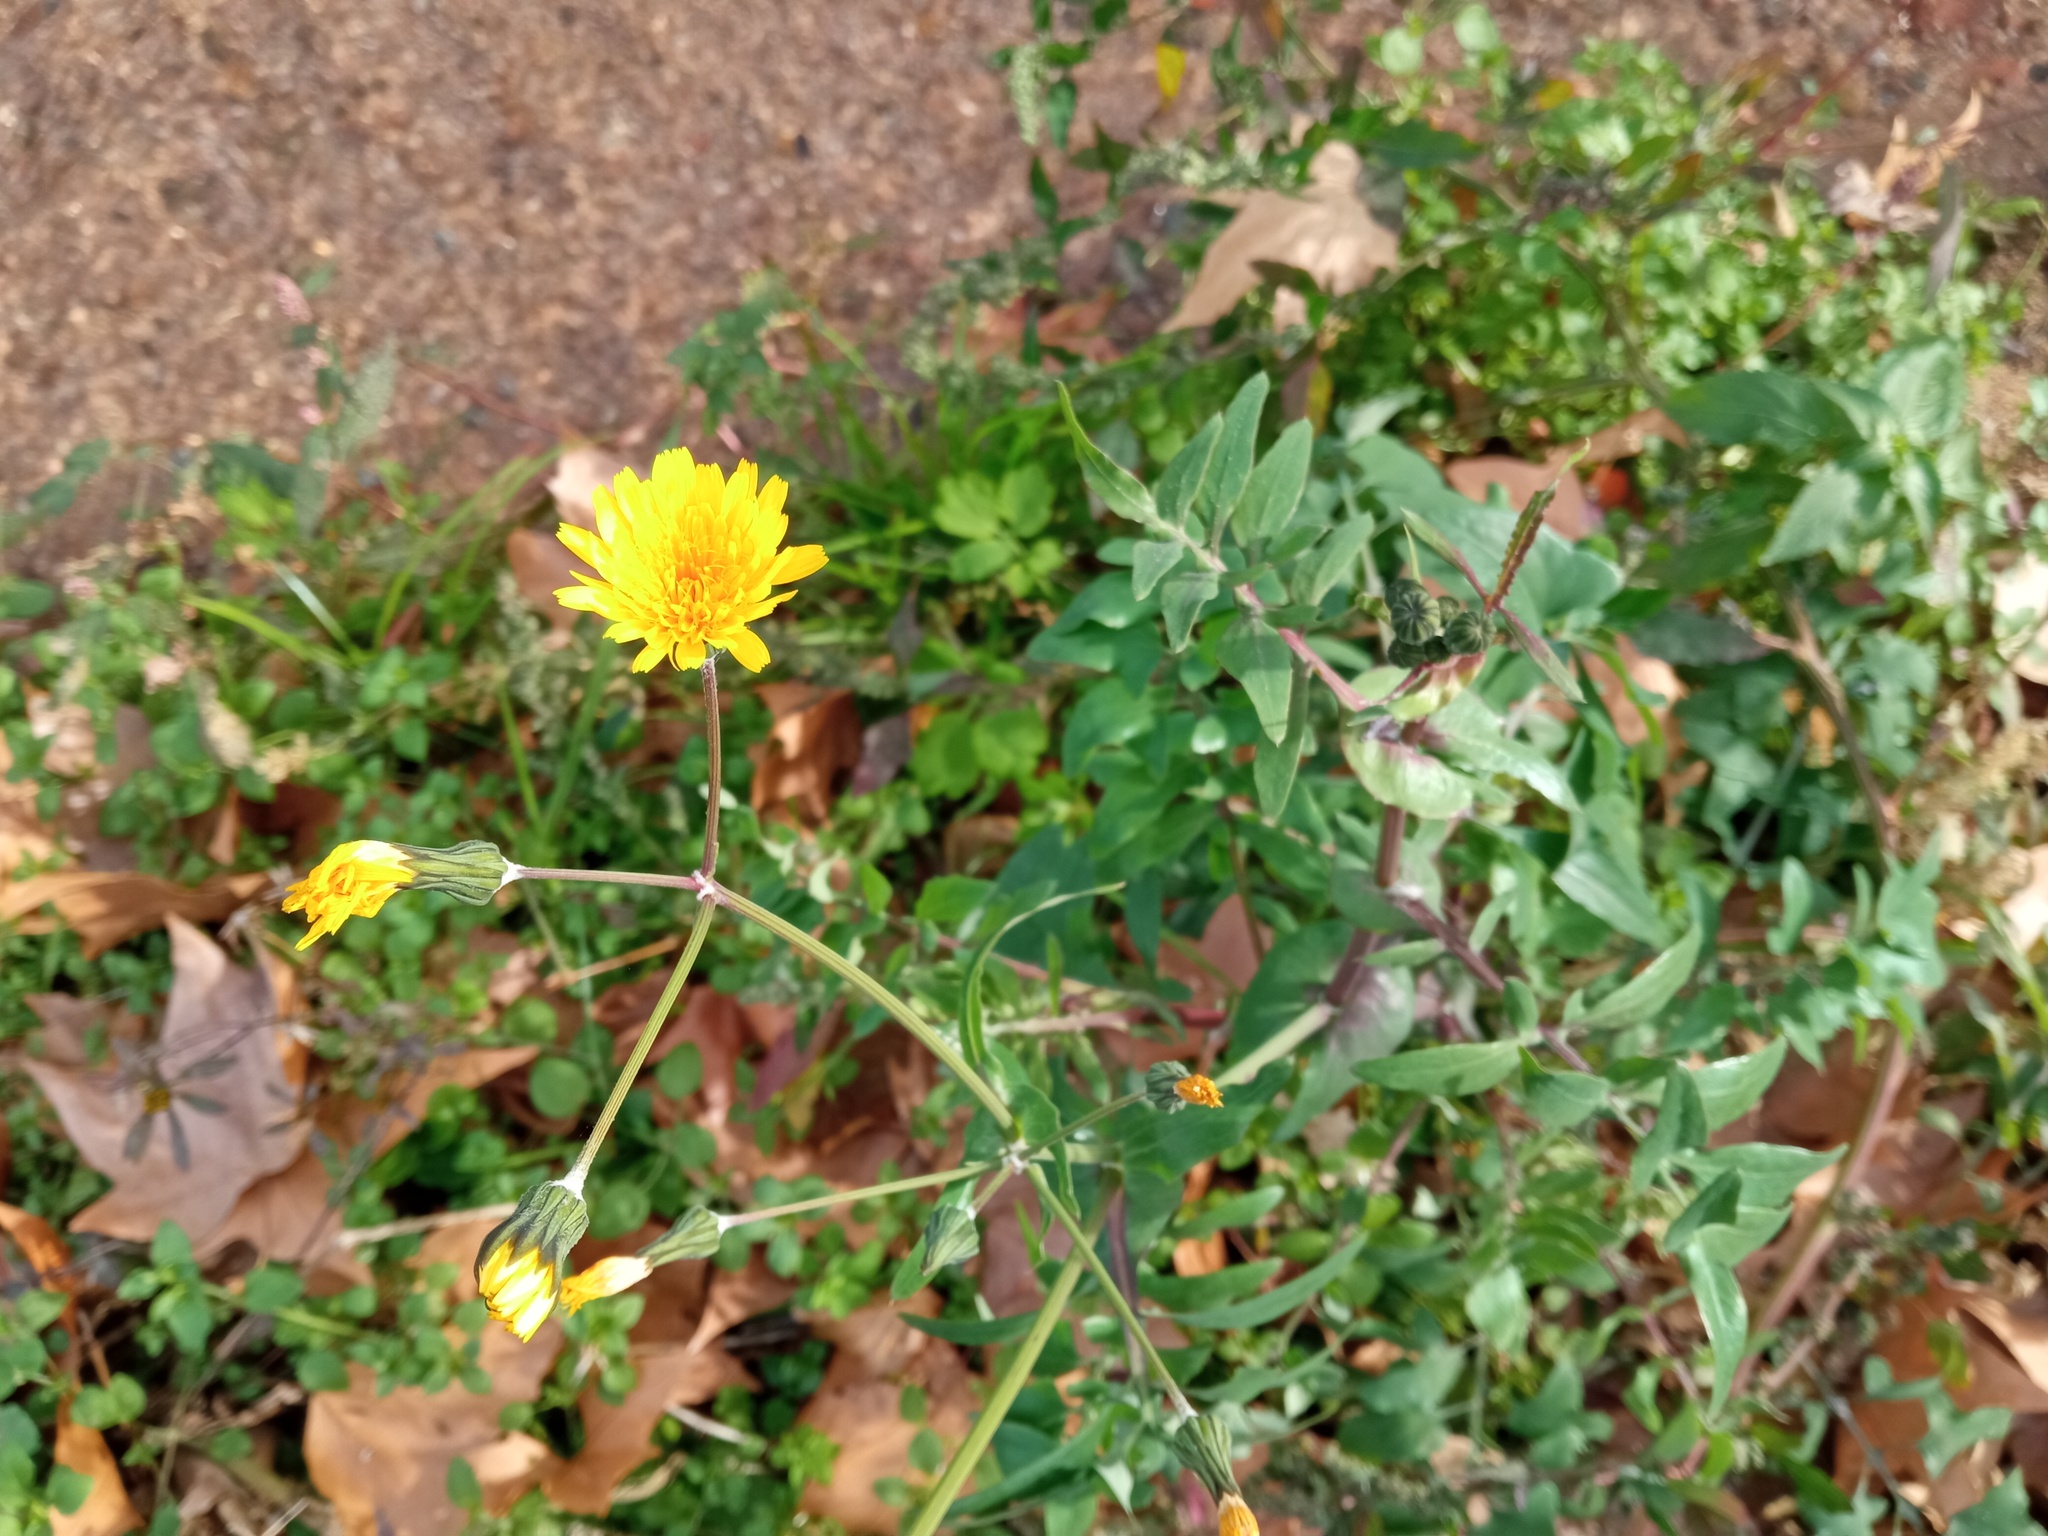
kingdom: Plantae
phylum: Tracheophyta
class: Magnoliopsida
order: Asterales
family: Asteraceae
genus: Sonchus
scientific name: Sonchus tenerrimus
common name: Clammy sowthistle
